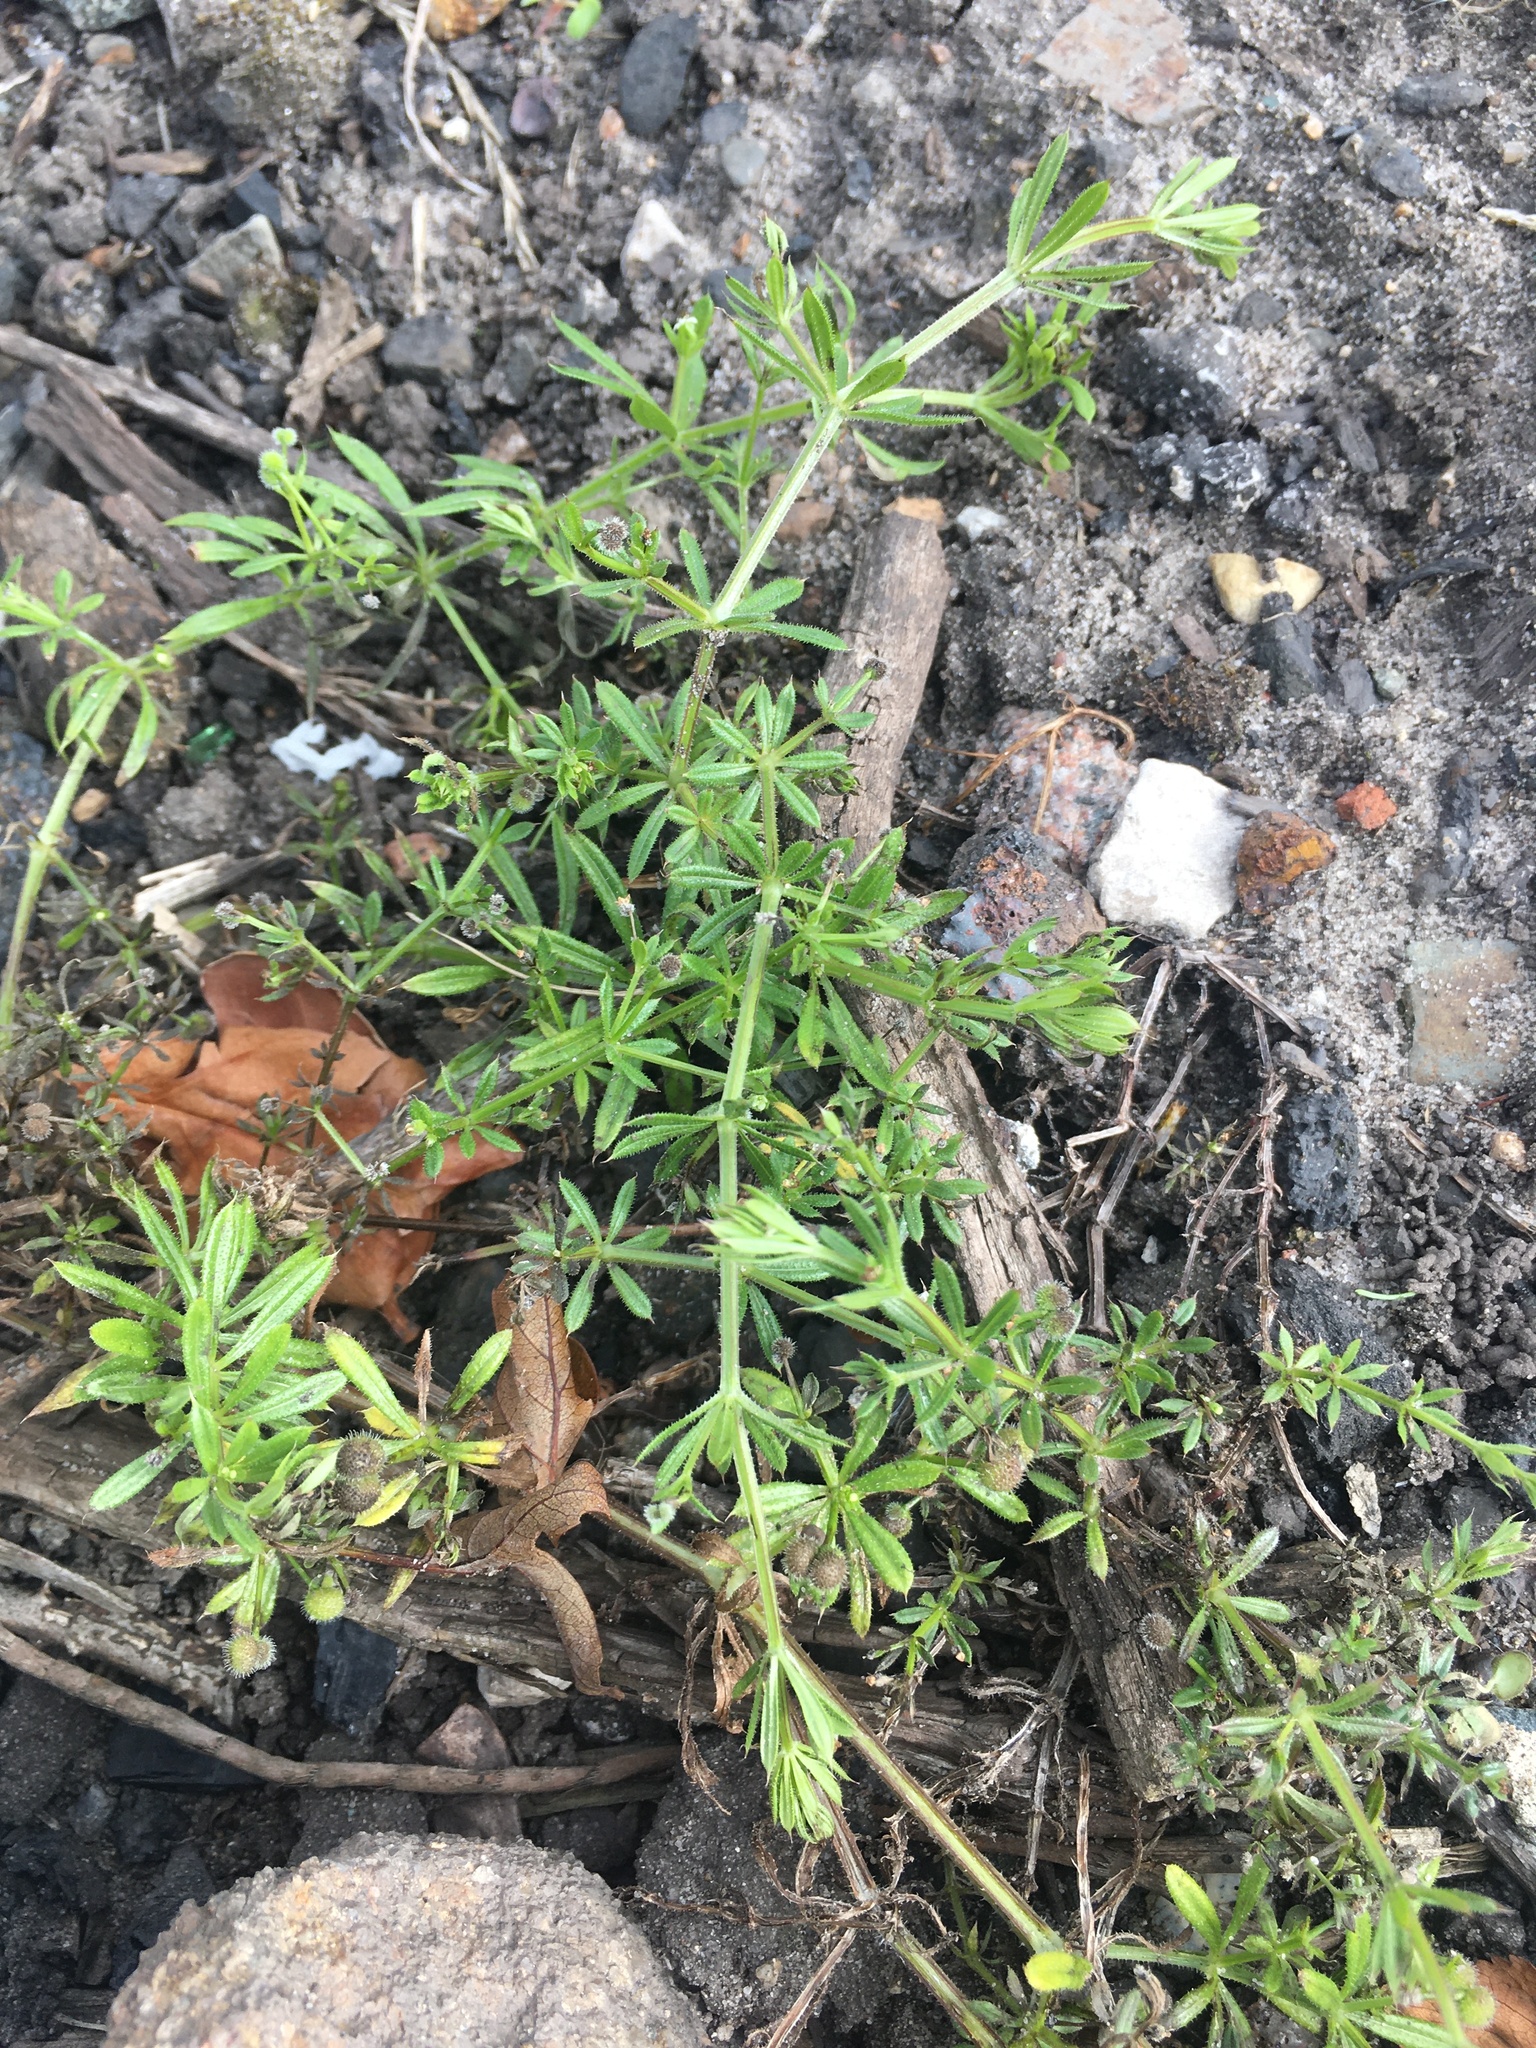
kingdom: Plantae
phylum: Tracheophyta
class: Magnoliopsida
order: Gentianales
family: Rubiaceae
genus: Galium
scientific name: Galium aparine
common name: Cleavers
